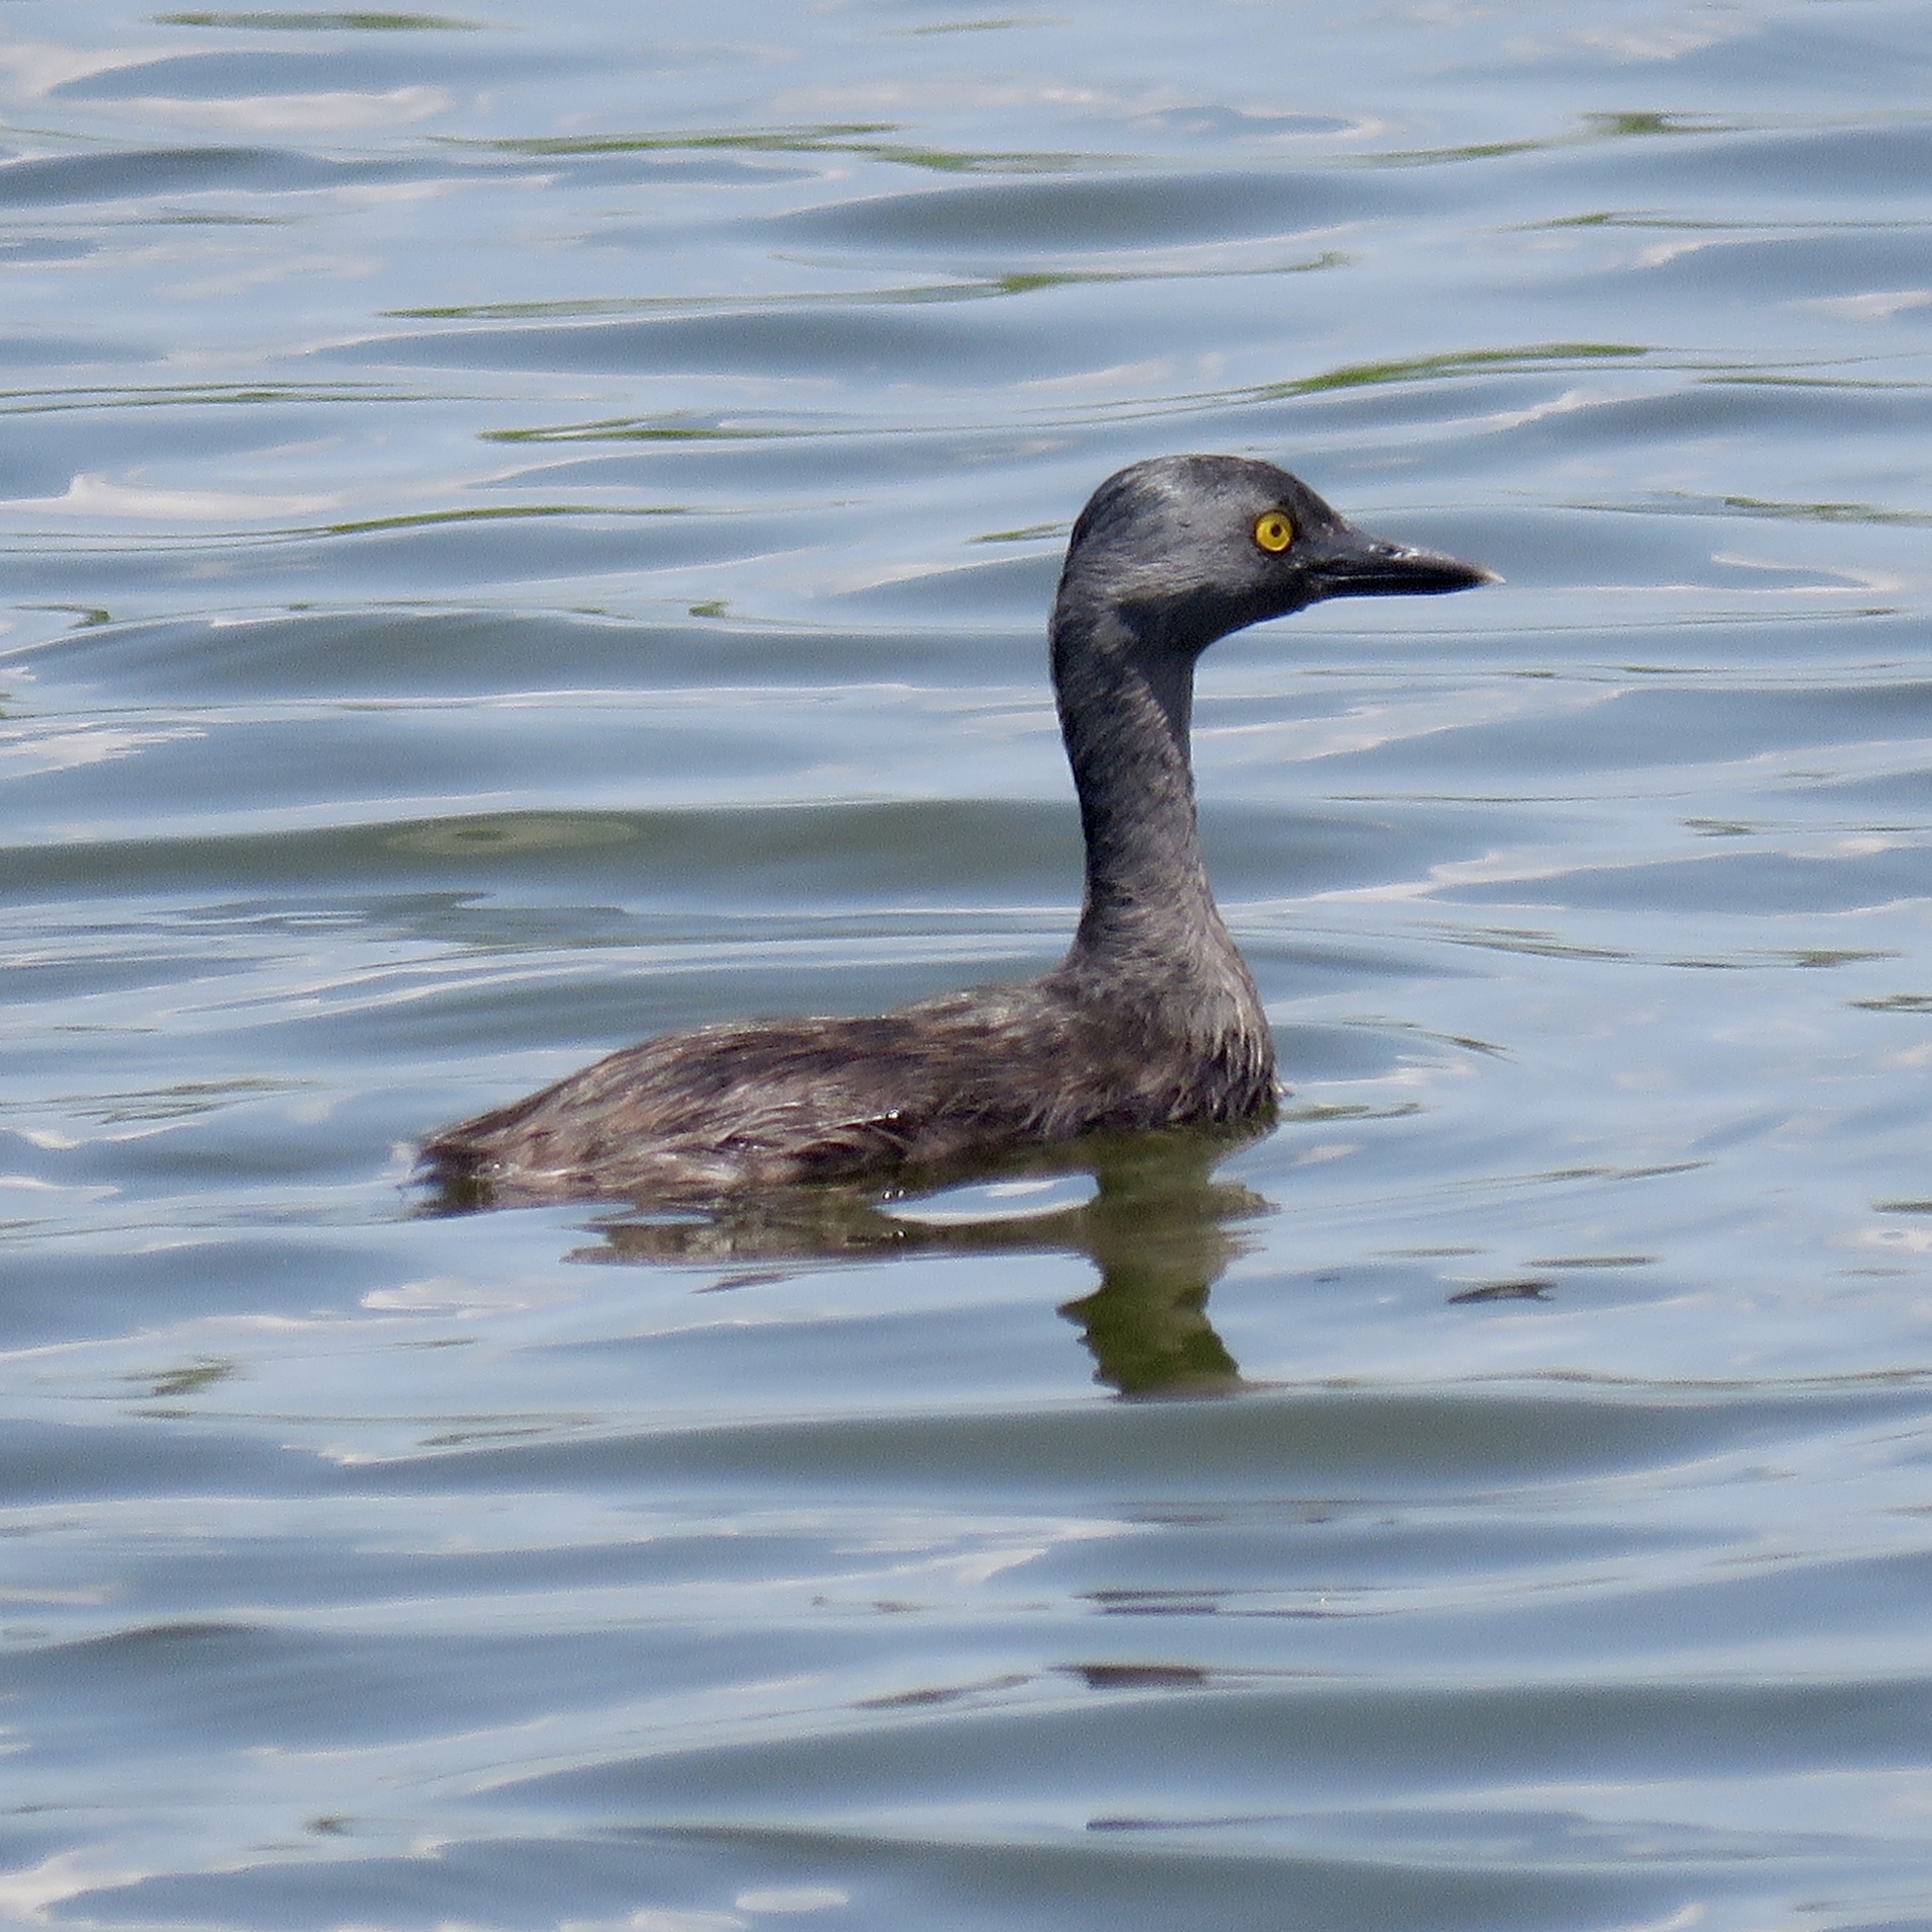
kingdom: Animalia
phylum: Chordata
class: Aves
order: Podicipediformes
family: Podicipedidae
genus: Tachybaptus
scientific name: Tachybaptus dominicus
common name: Least grebe
